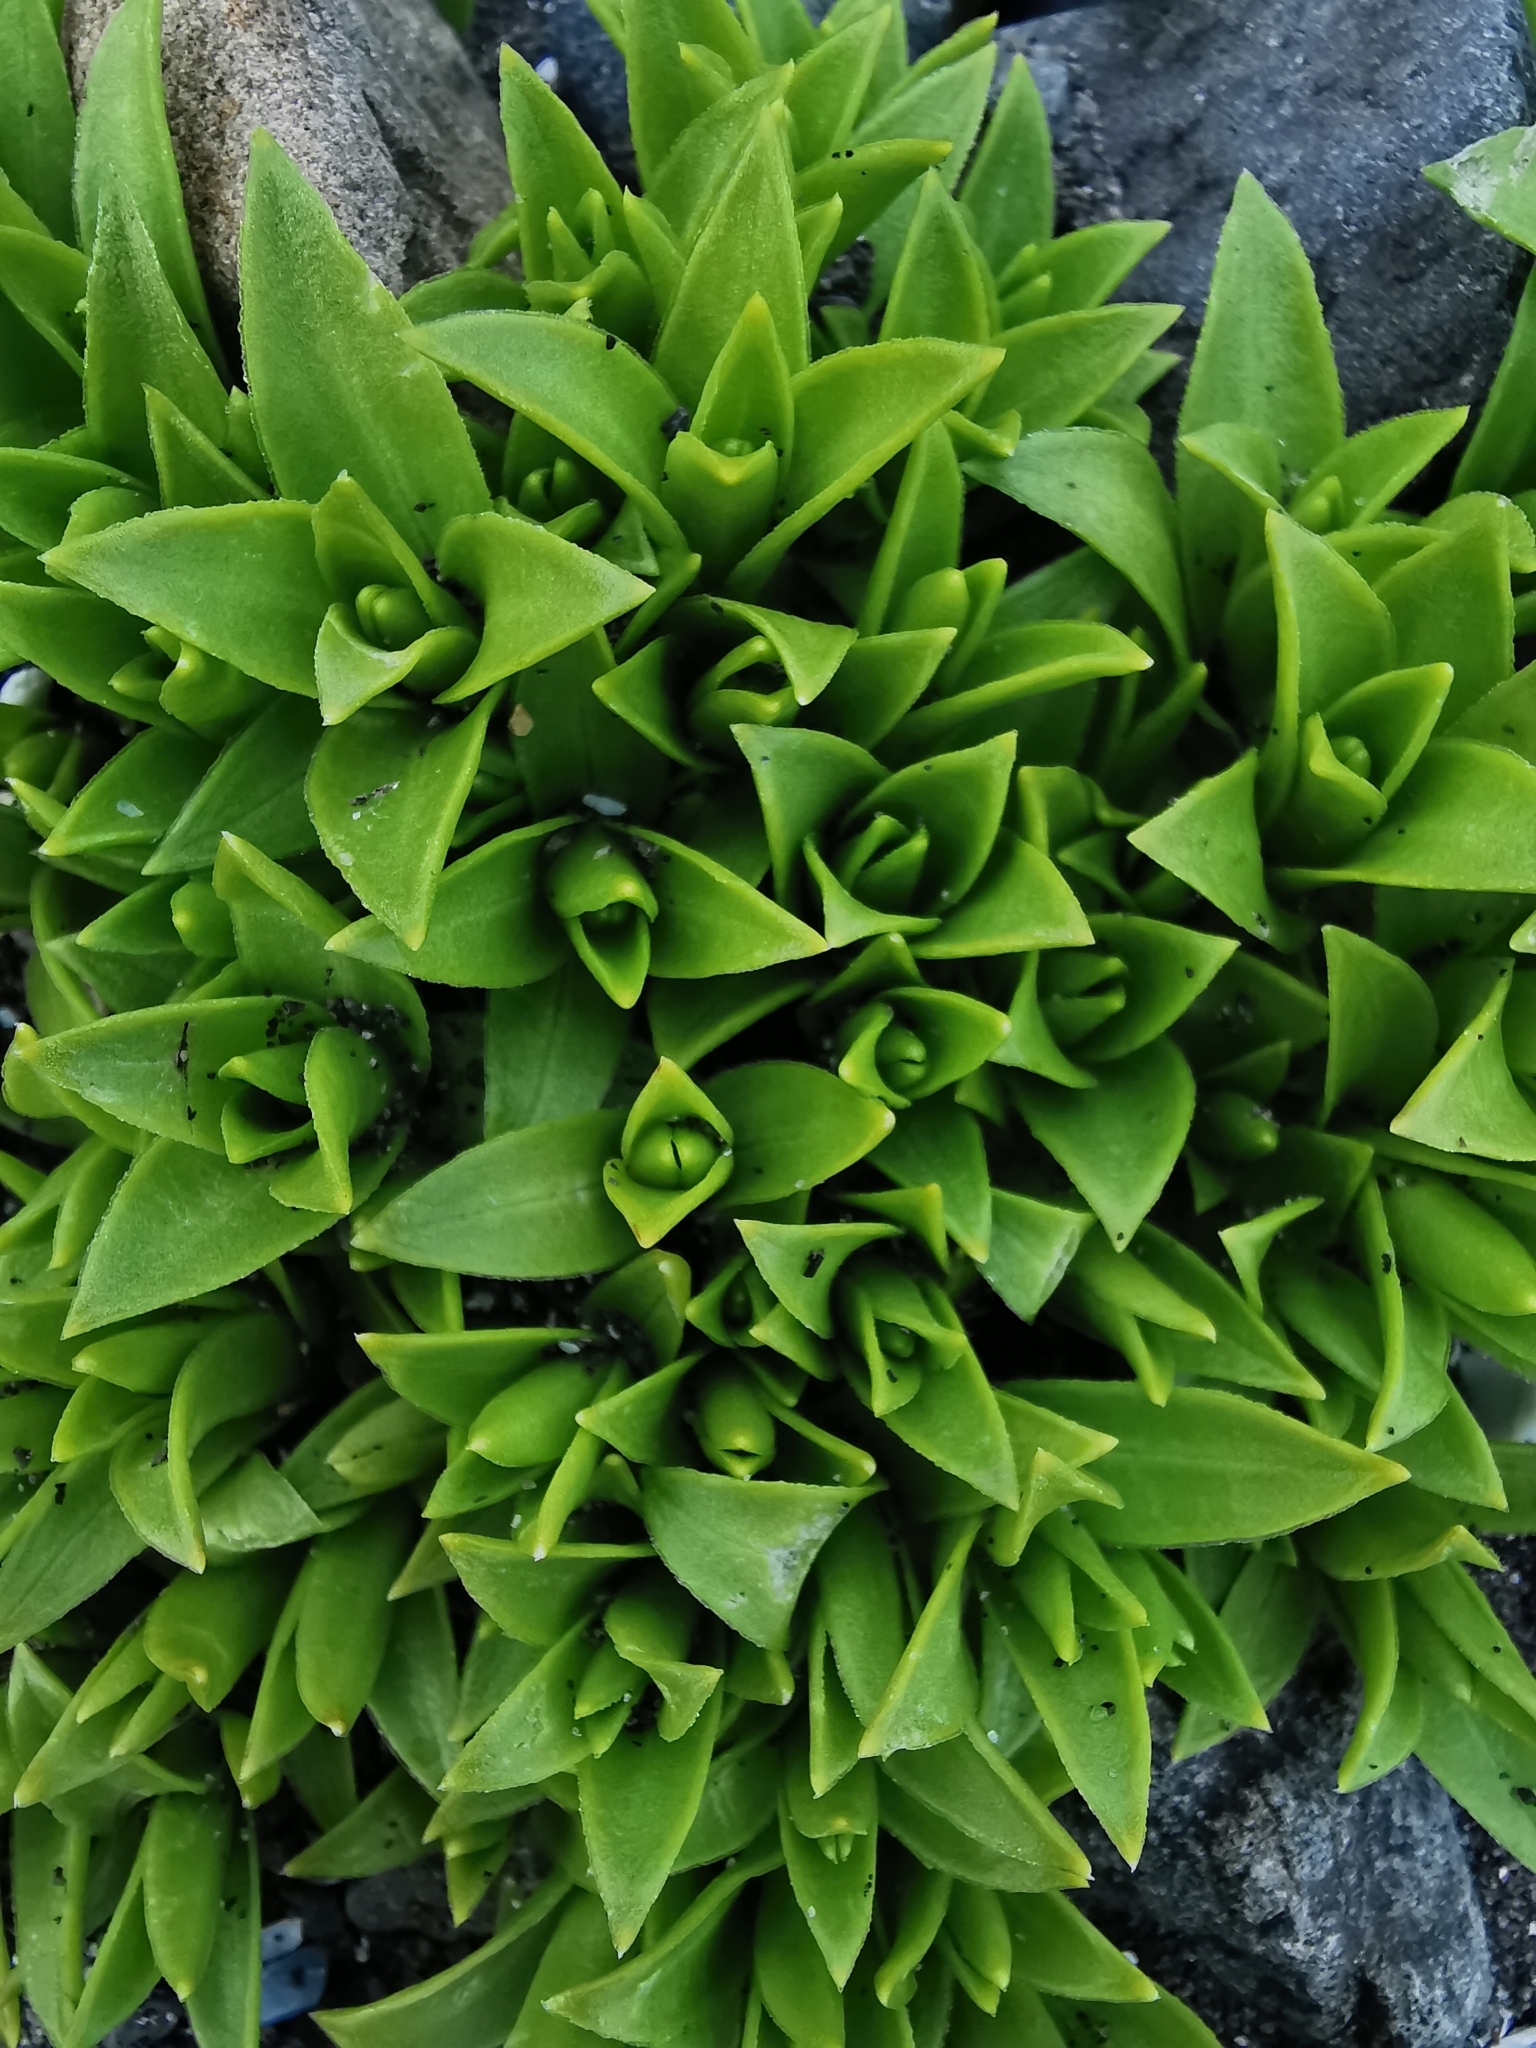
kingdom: Plantae
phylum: Tracheophyta
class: Magnoliopsida
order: Caryophyllales
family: Caryophyllaceae
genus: Honckenya
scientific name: Honckenya peploides
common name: Sea sandwort
